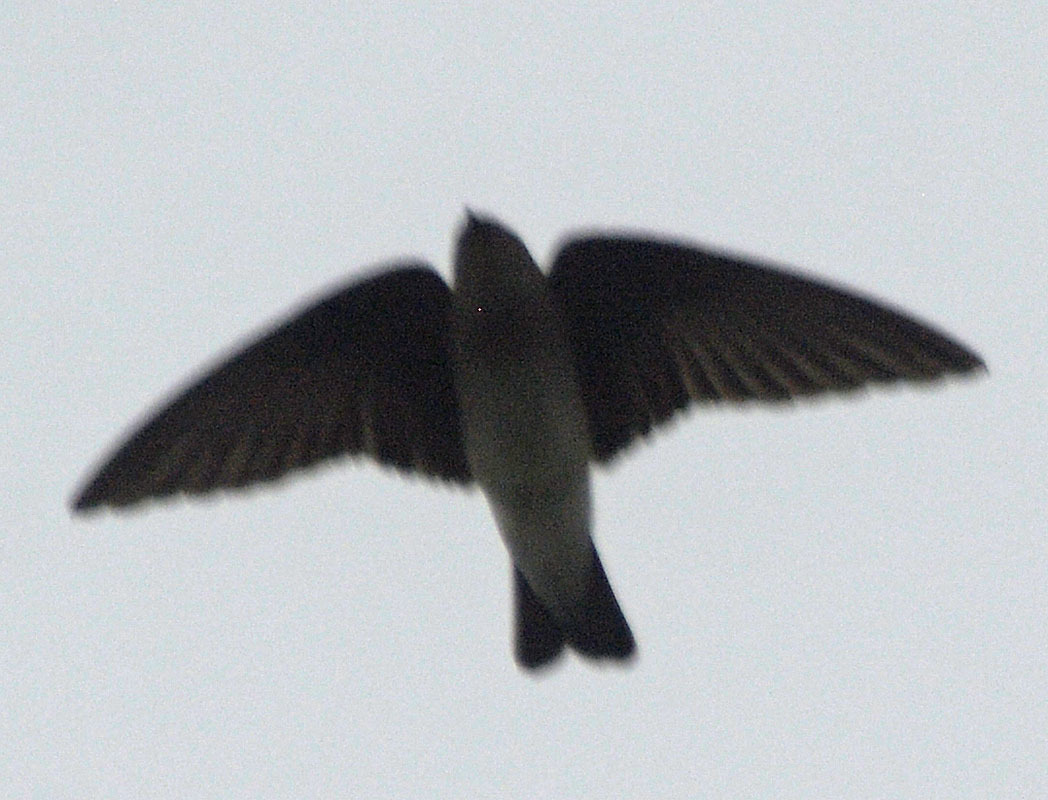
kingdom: Animalia
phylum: Chordata
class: Aves
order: Passeriformes
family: Hirundinidae
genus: Stelgidopteryx
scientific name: Stelgidopteryx serripennis
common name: Northern rough-winged swallow
